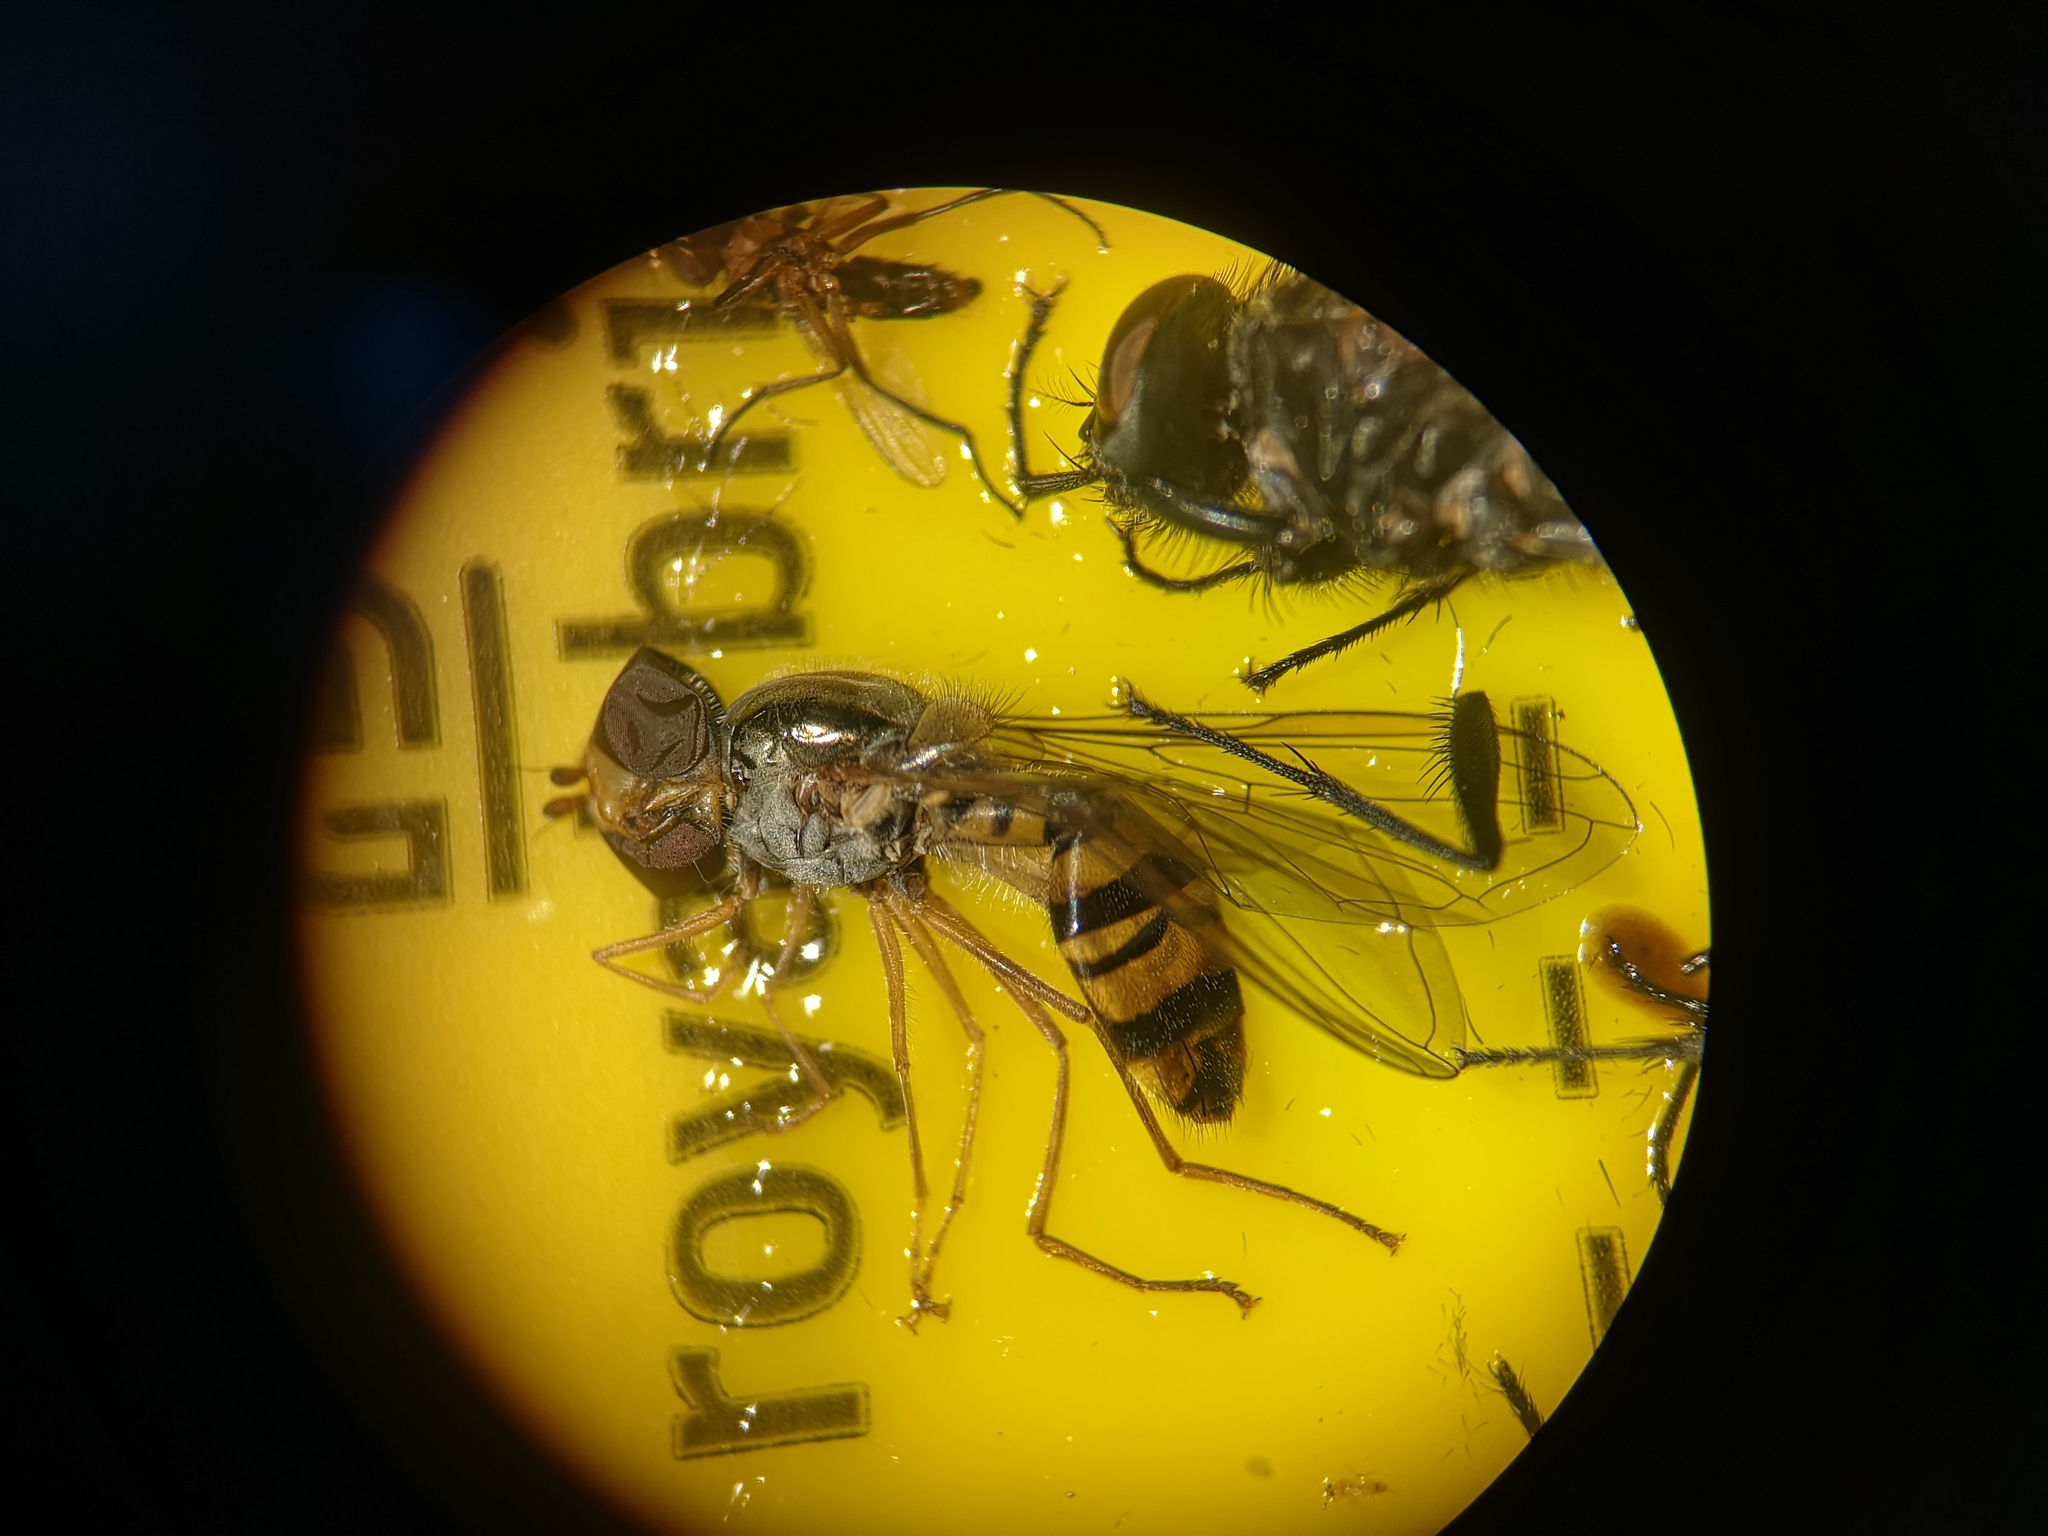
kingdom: Animalia
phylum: Arthropoda
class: Insecta
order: Diptera
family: Syrphidae
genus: Episyrphus
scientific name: Episyrphus balteatus
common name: Marmalade hoverfly
